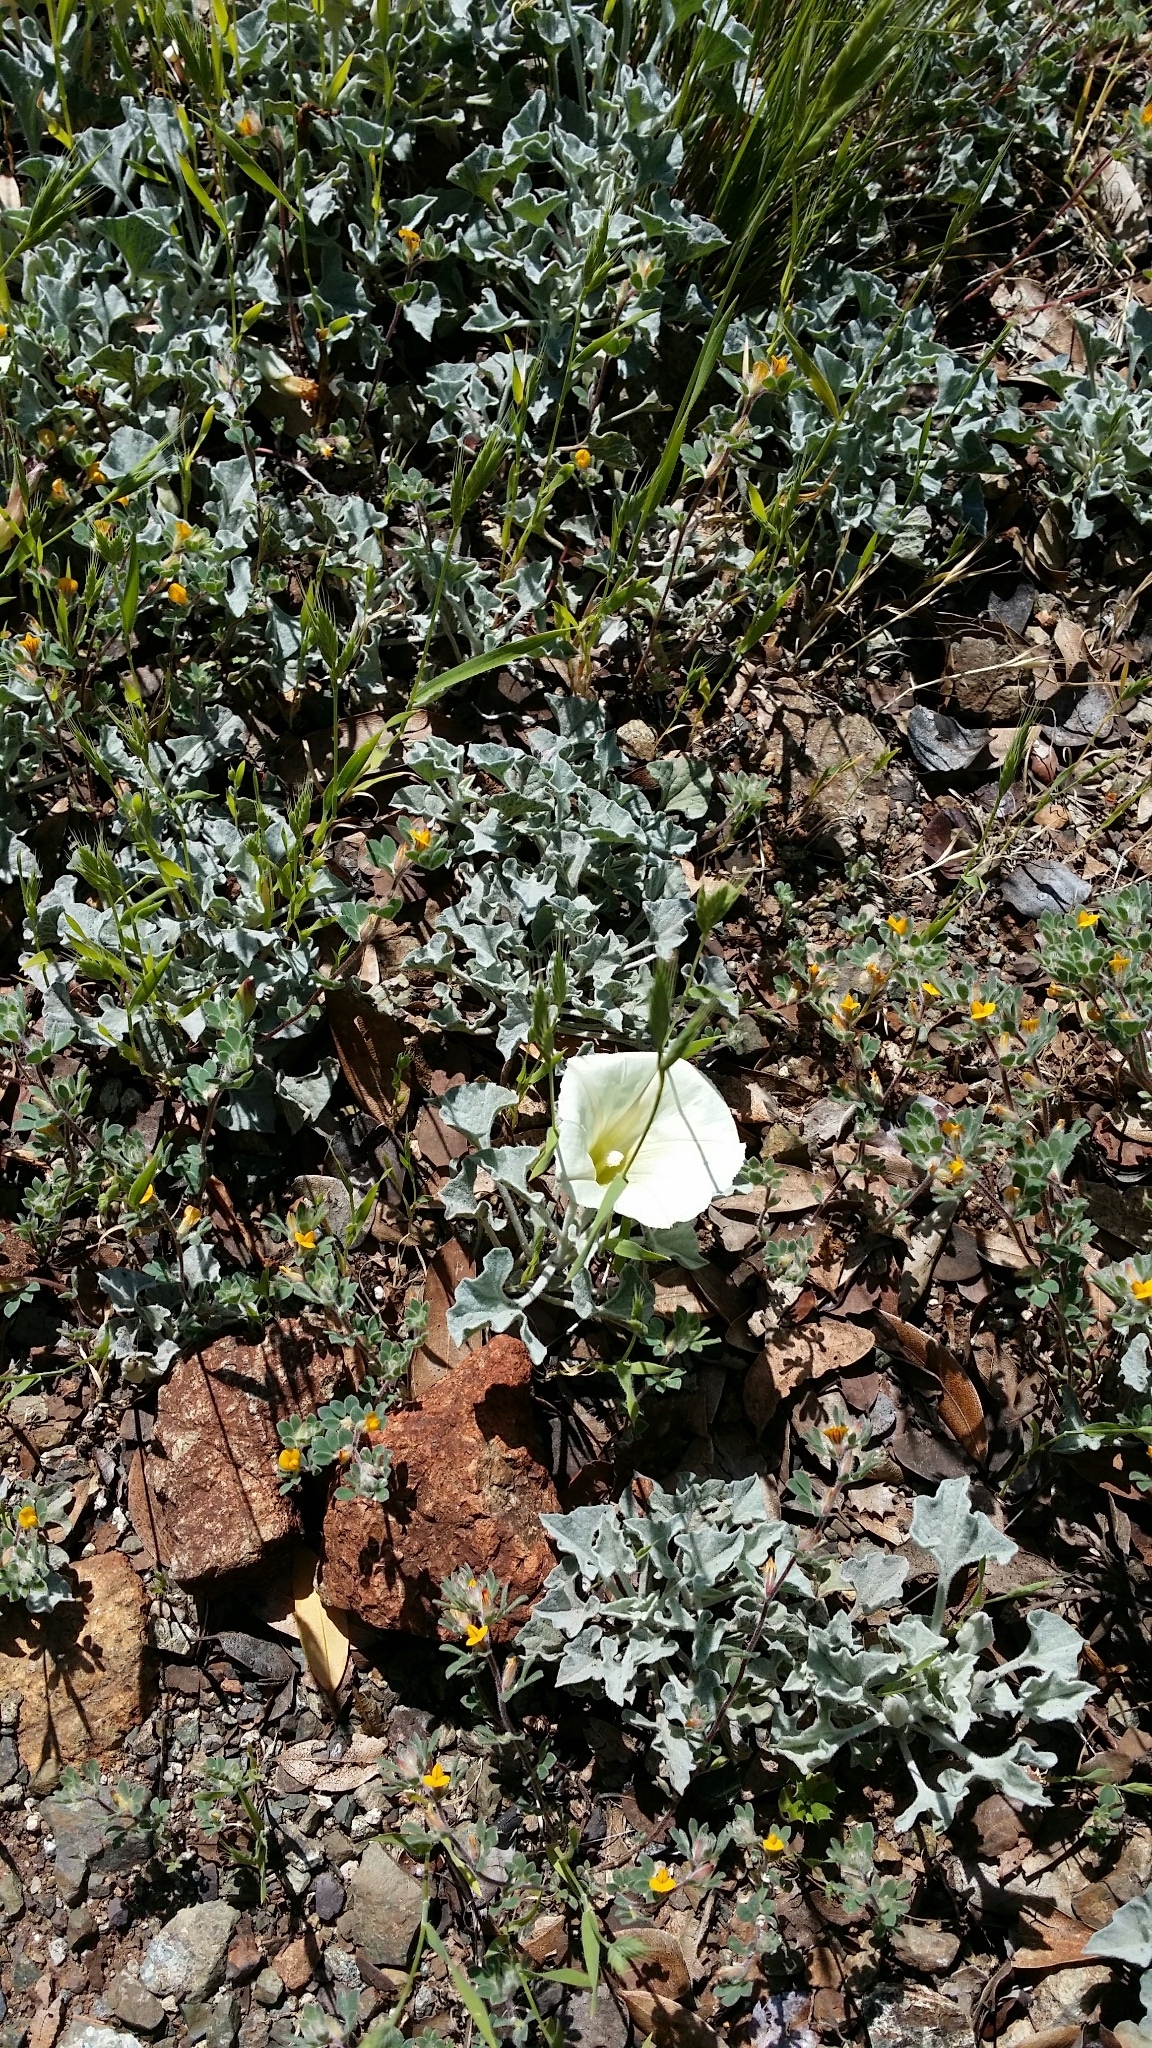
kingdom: Plantae
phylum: Tracheophyta
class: Magnoliopsida
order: Solanales
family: Convolvulaceae
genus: Calystegia
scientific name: Calystegia collina
